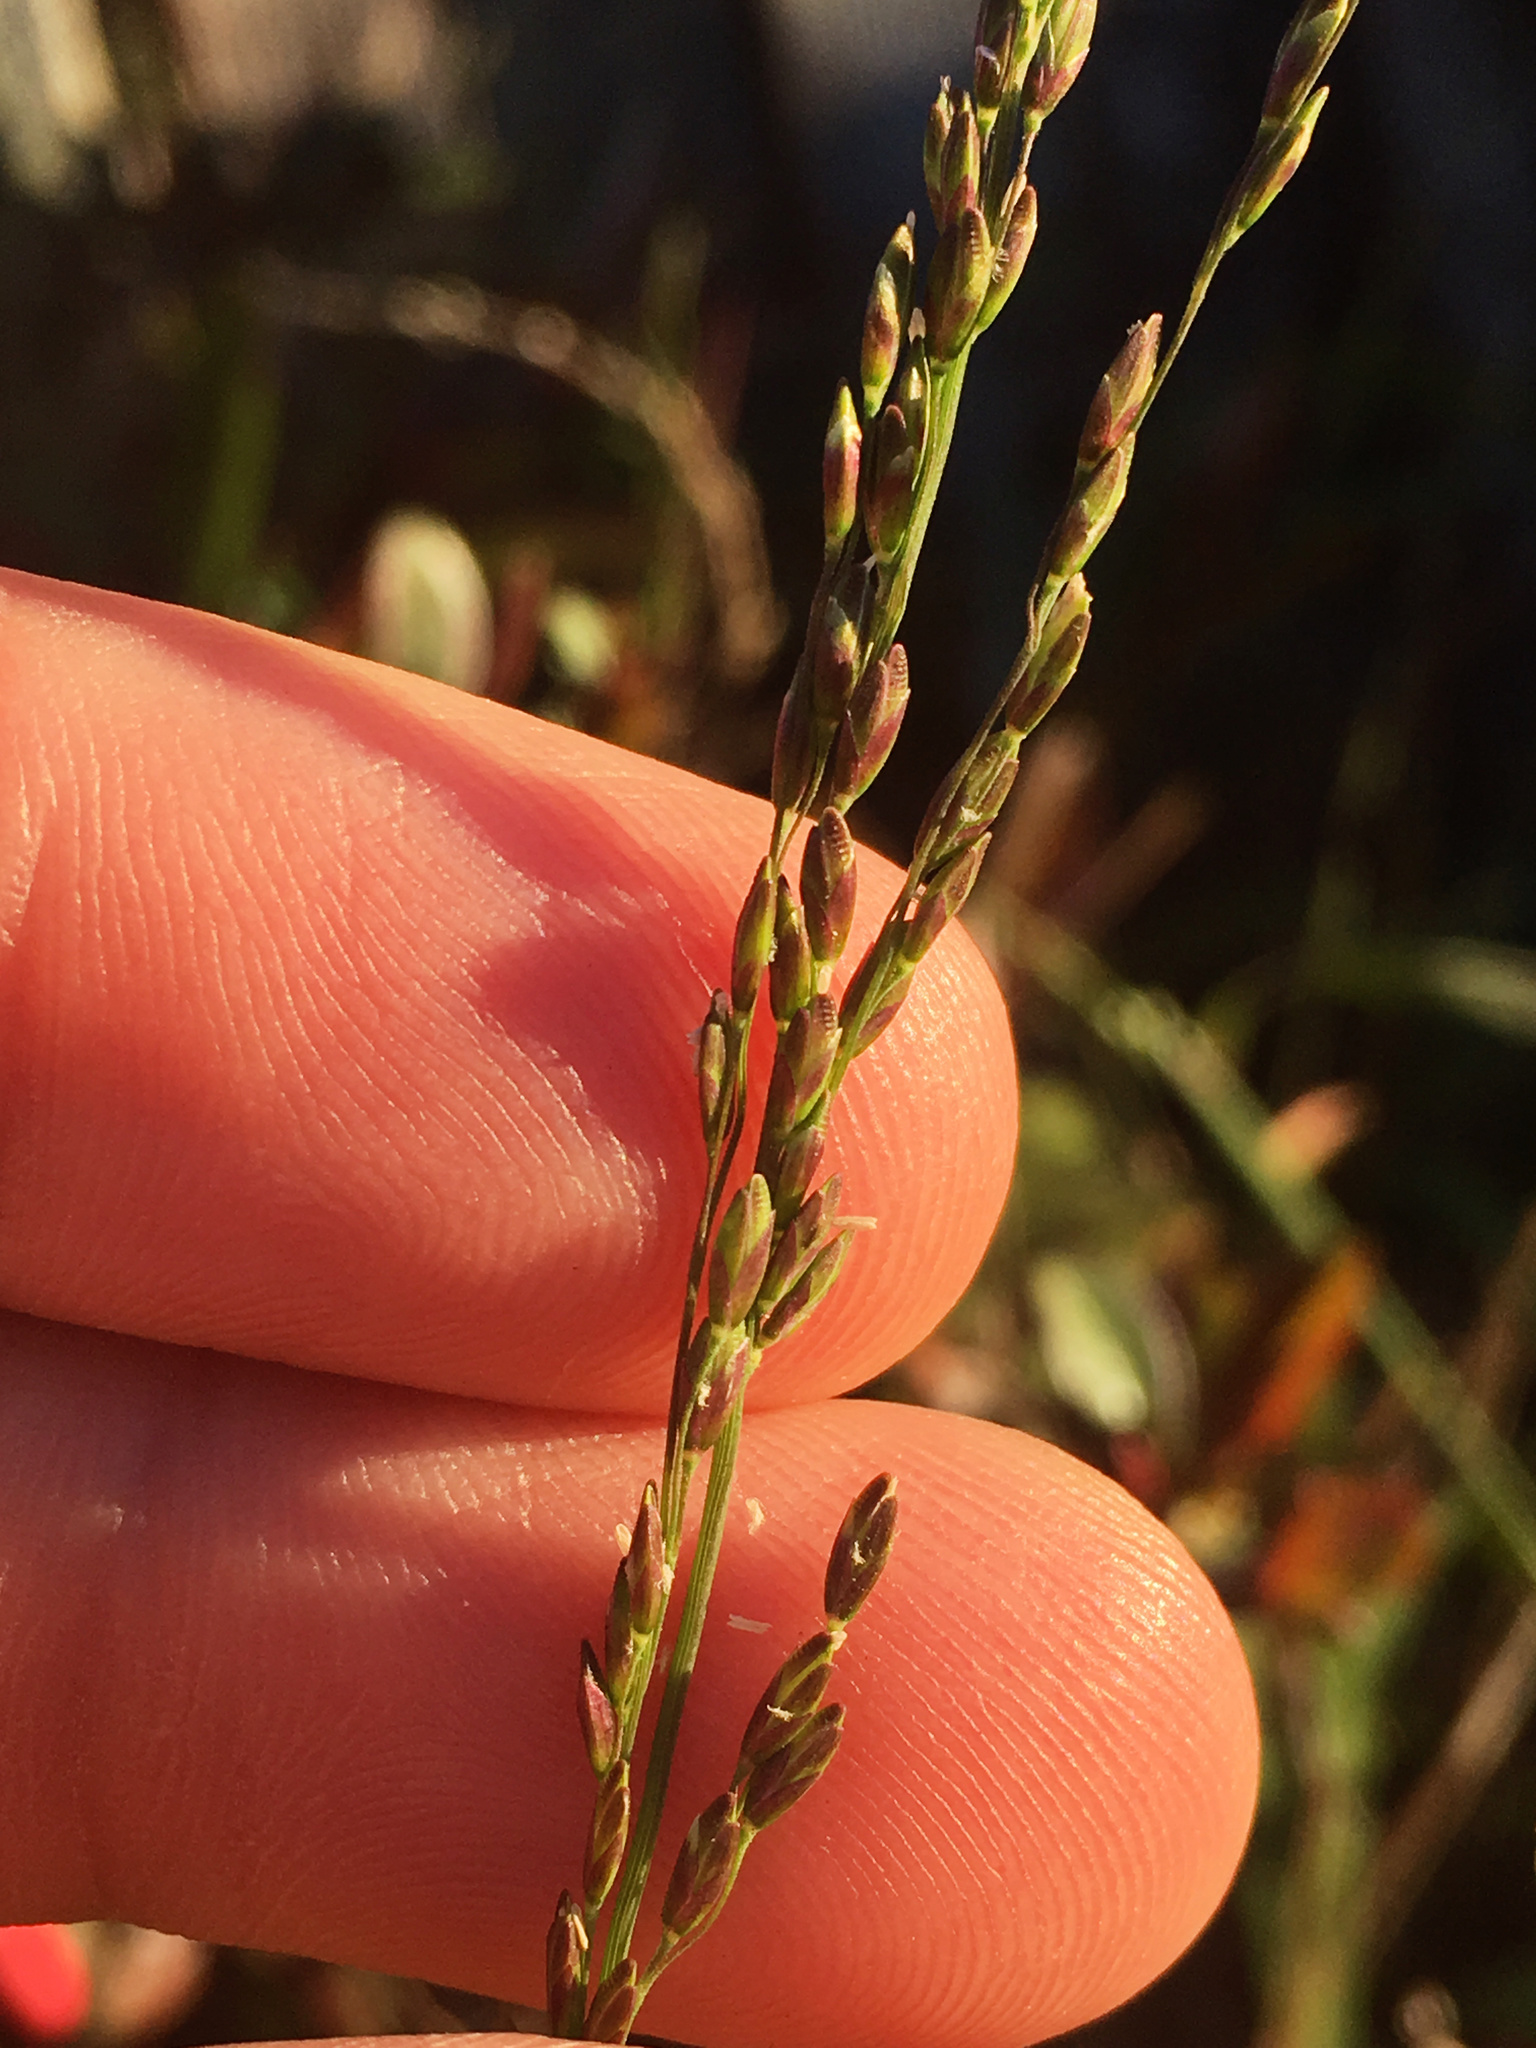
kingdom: Plantae
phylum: Tracheophyta
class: Liliopsida
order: Poales
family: Poaceae
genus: Ehrharta
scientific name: Ehrharta erecta
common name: Panic veldtgrass
